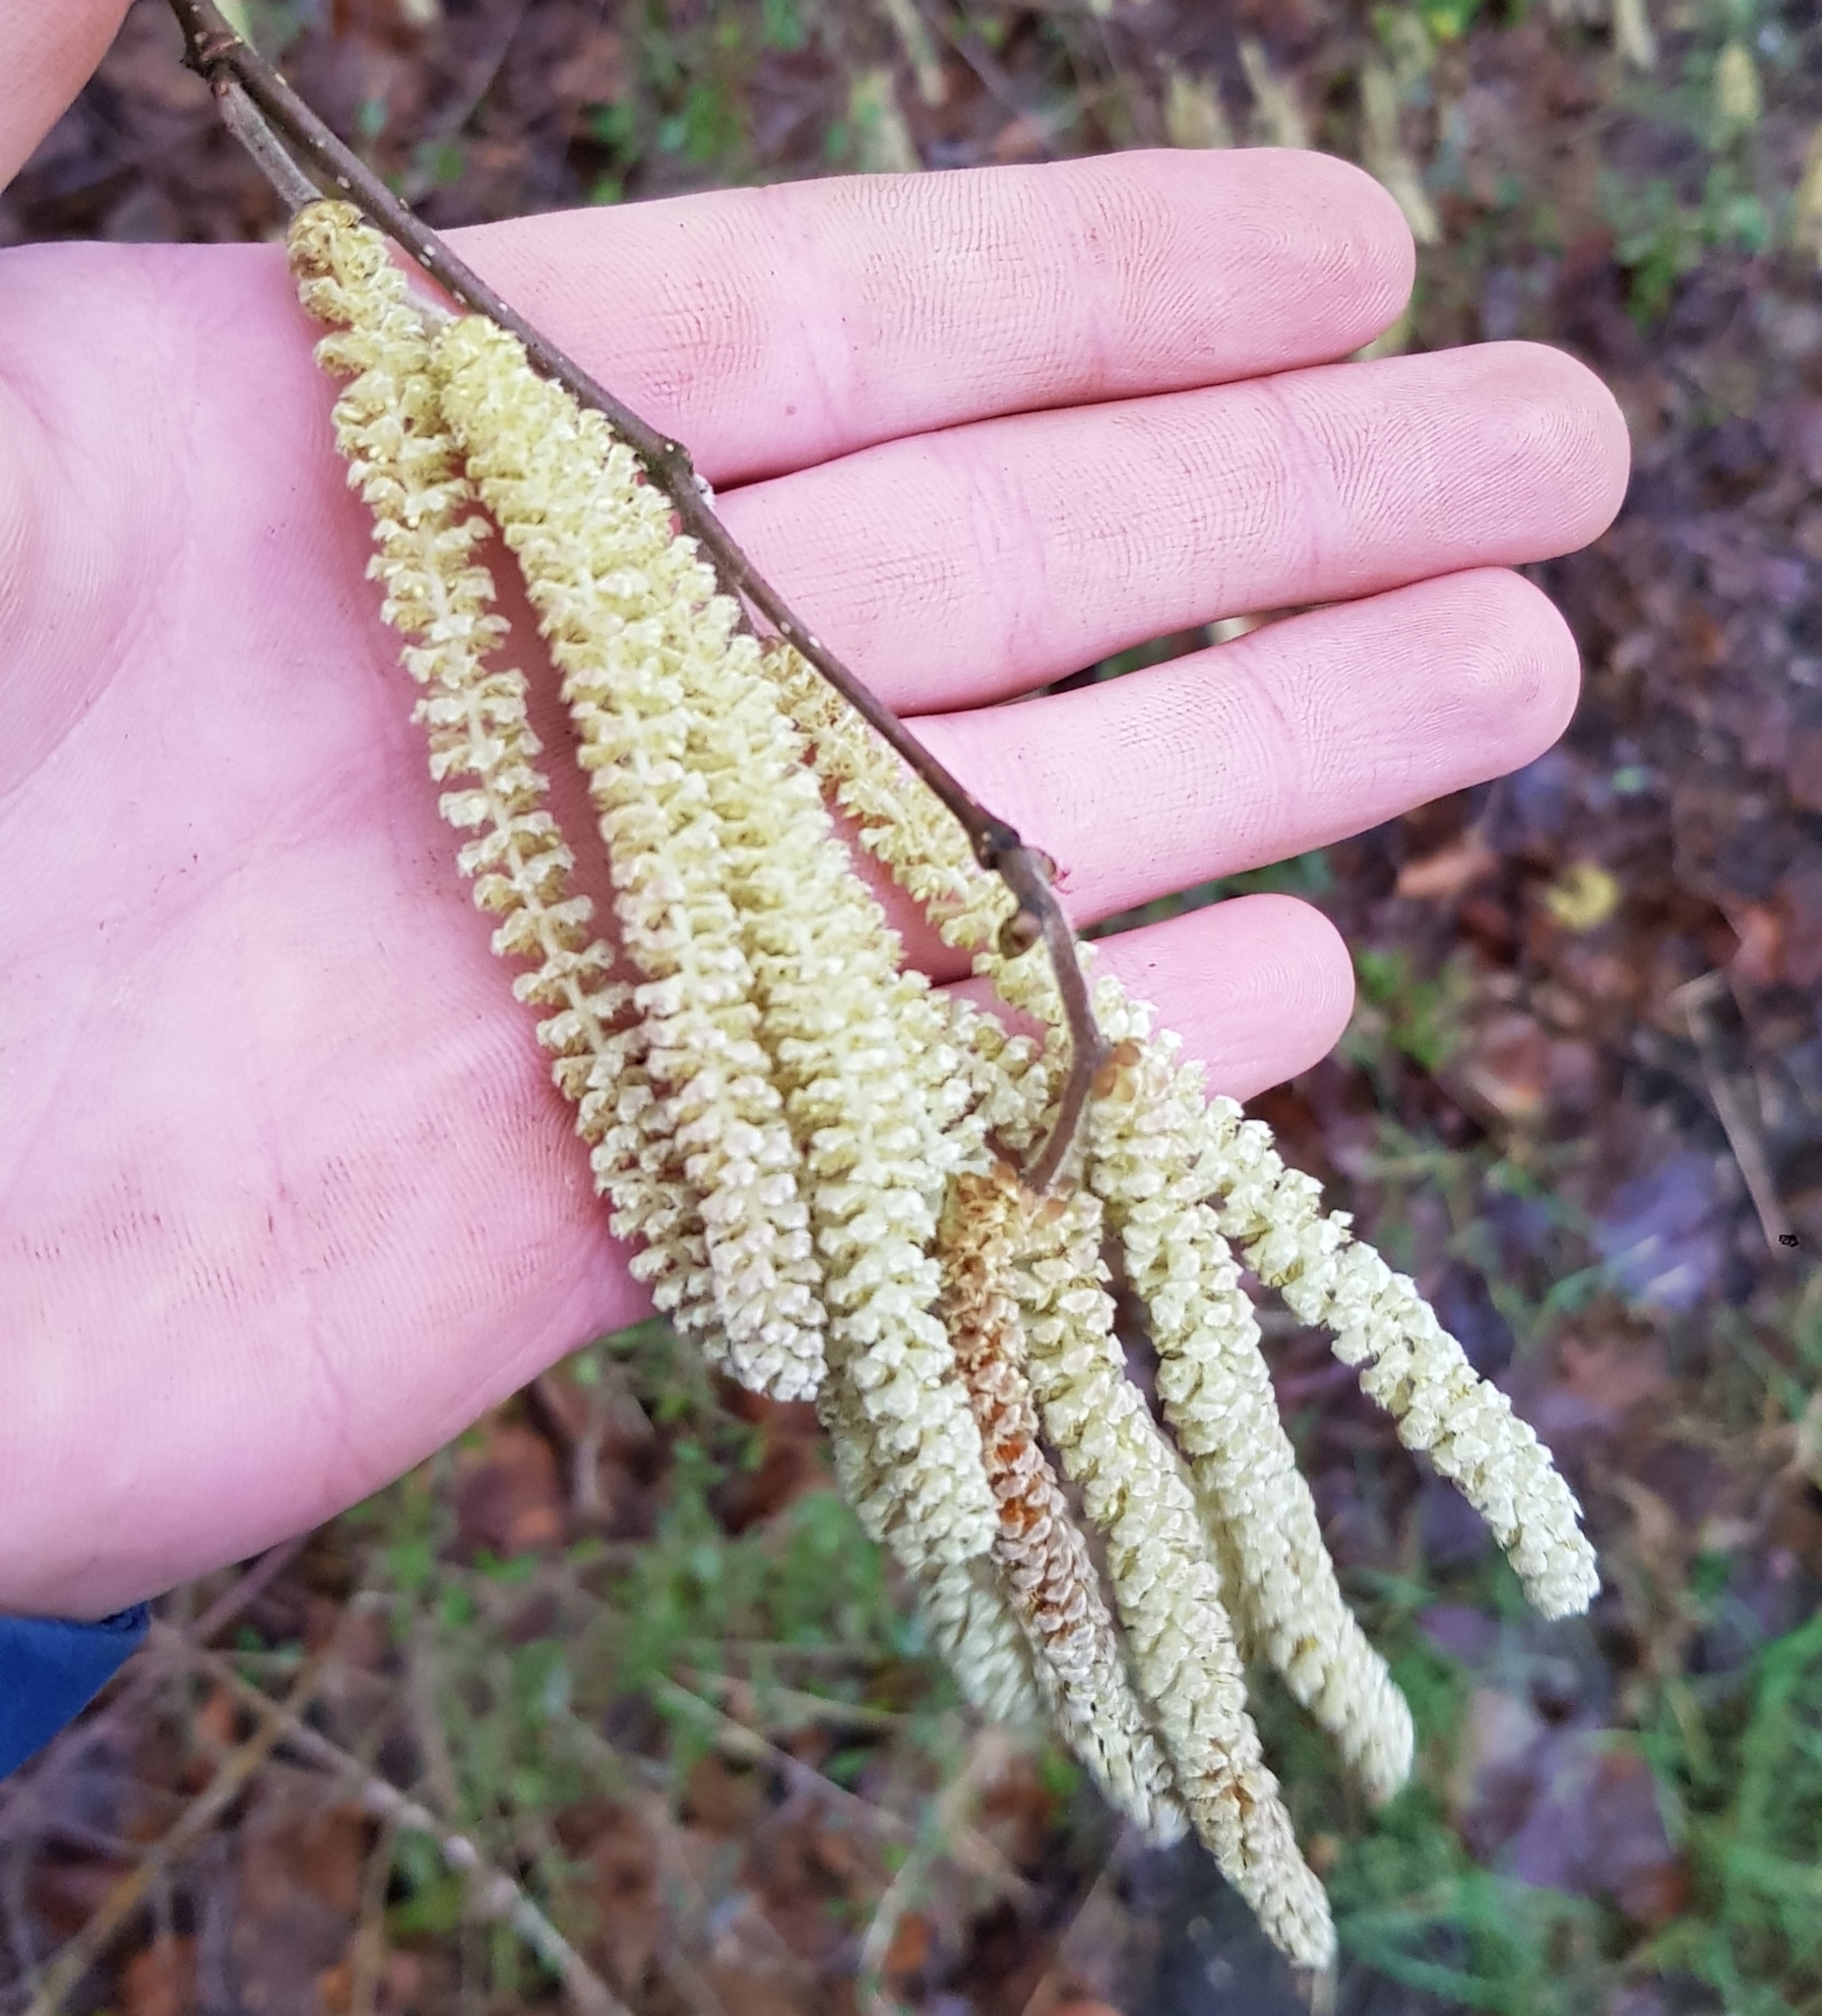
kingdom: Plantae
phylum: Tracheophyta
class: Magnoliopsida
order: Fagales
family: Betulaceae
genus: Corylus
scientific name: Corylus avellana
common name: European hazel
